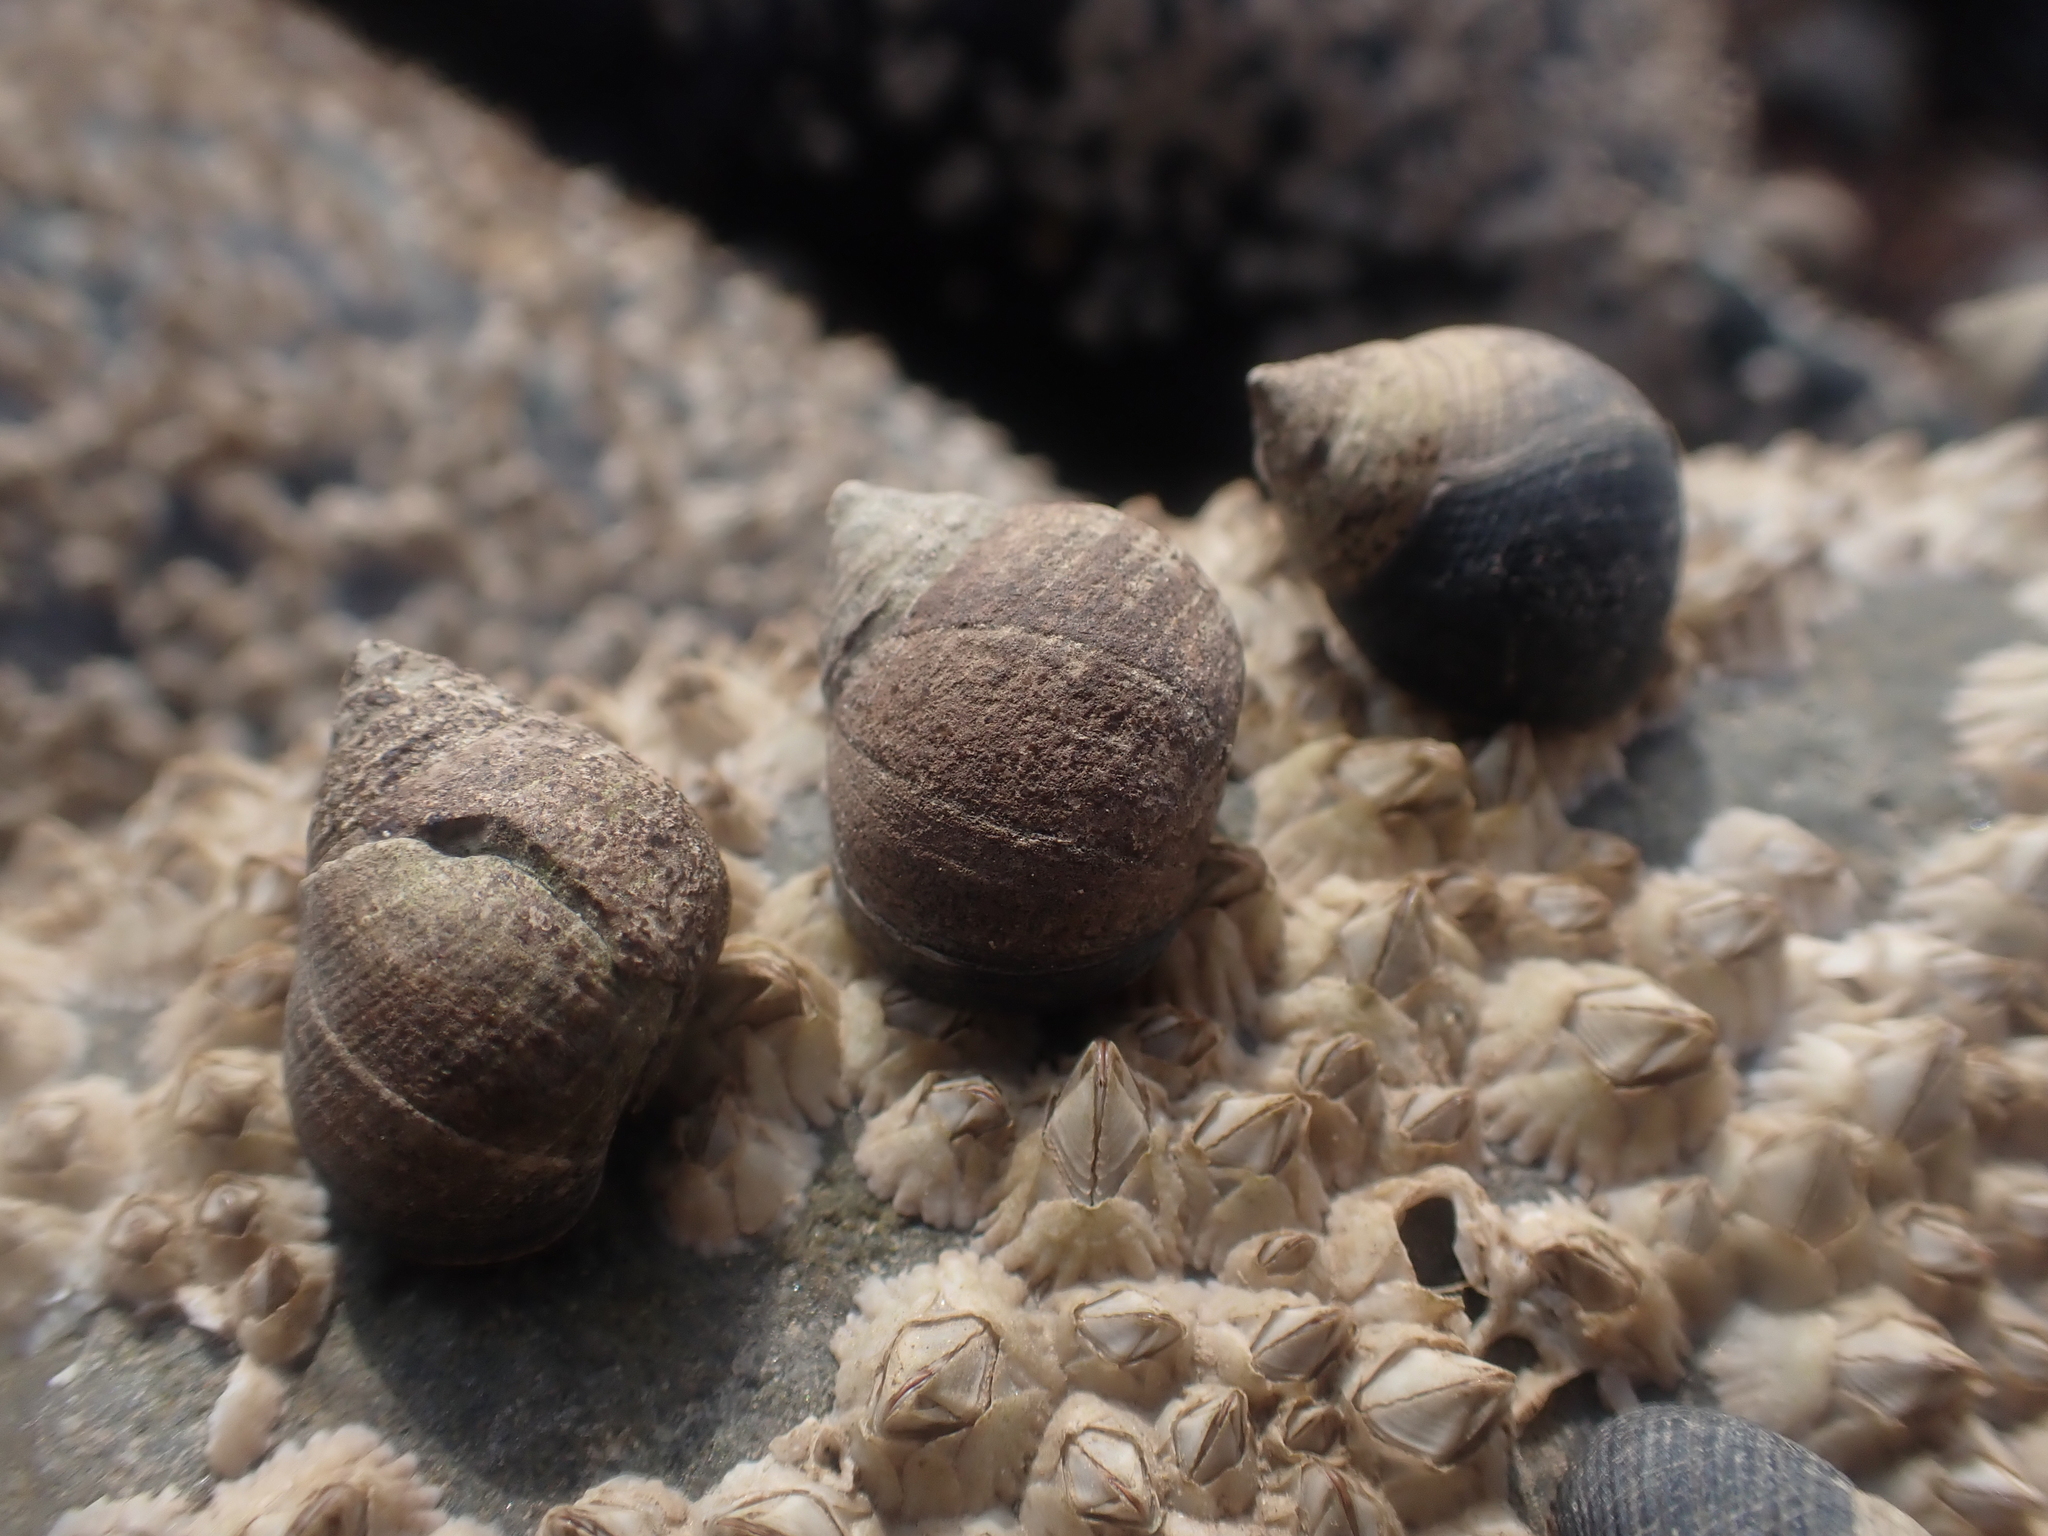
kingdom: Animalia
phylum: Mollusca
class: Gastropoda
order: Littorinimorpha
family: Littorinidae
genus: Littorina
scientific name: Littorina littorea
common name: Common periwinkle
